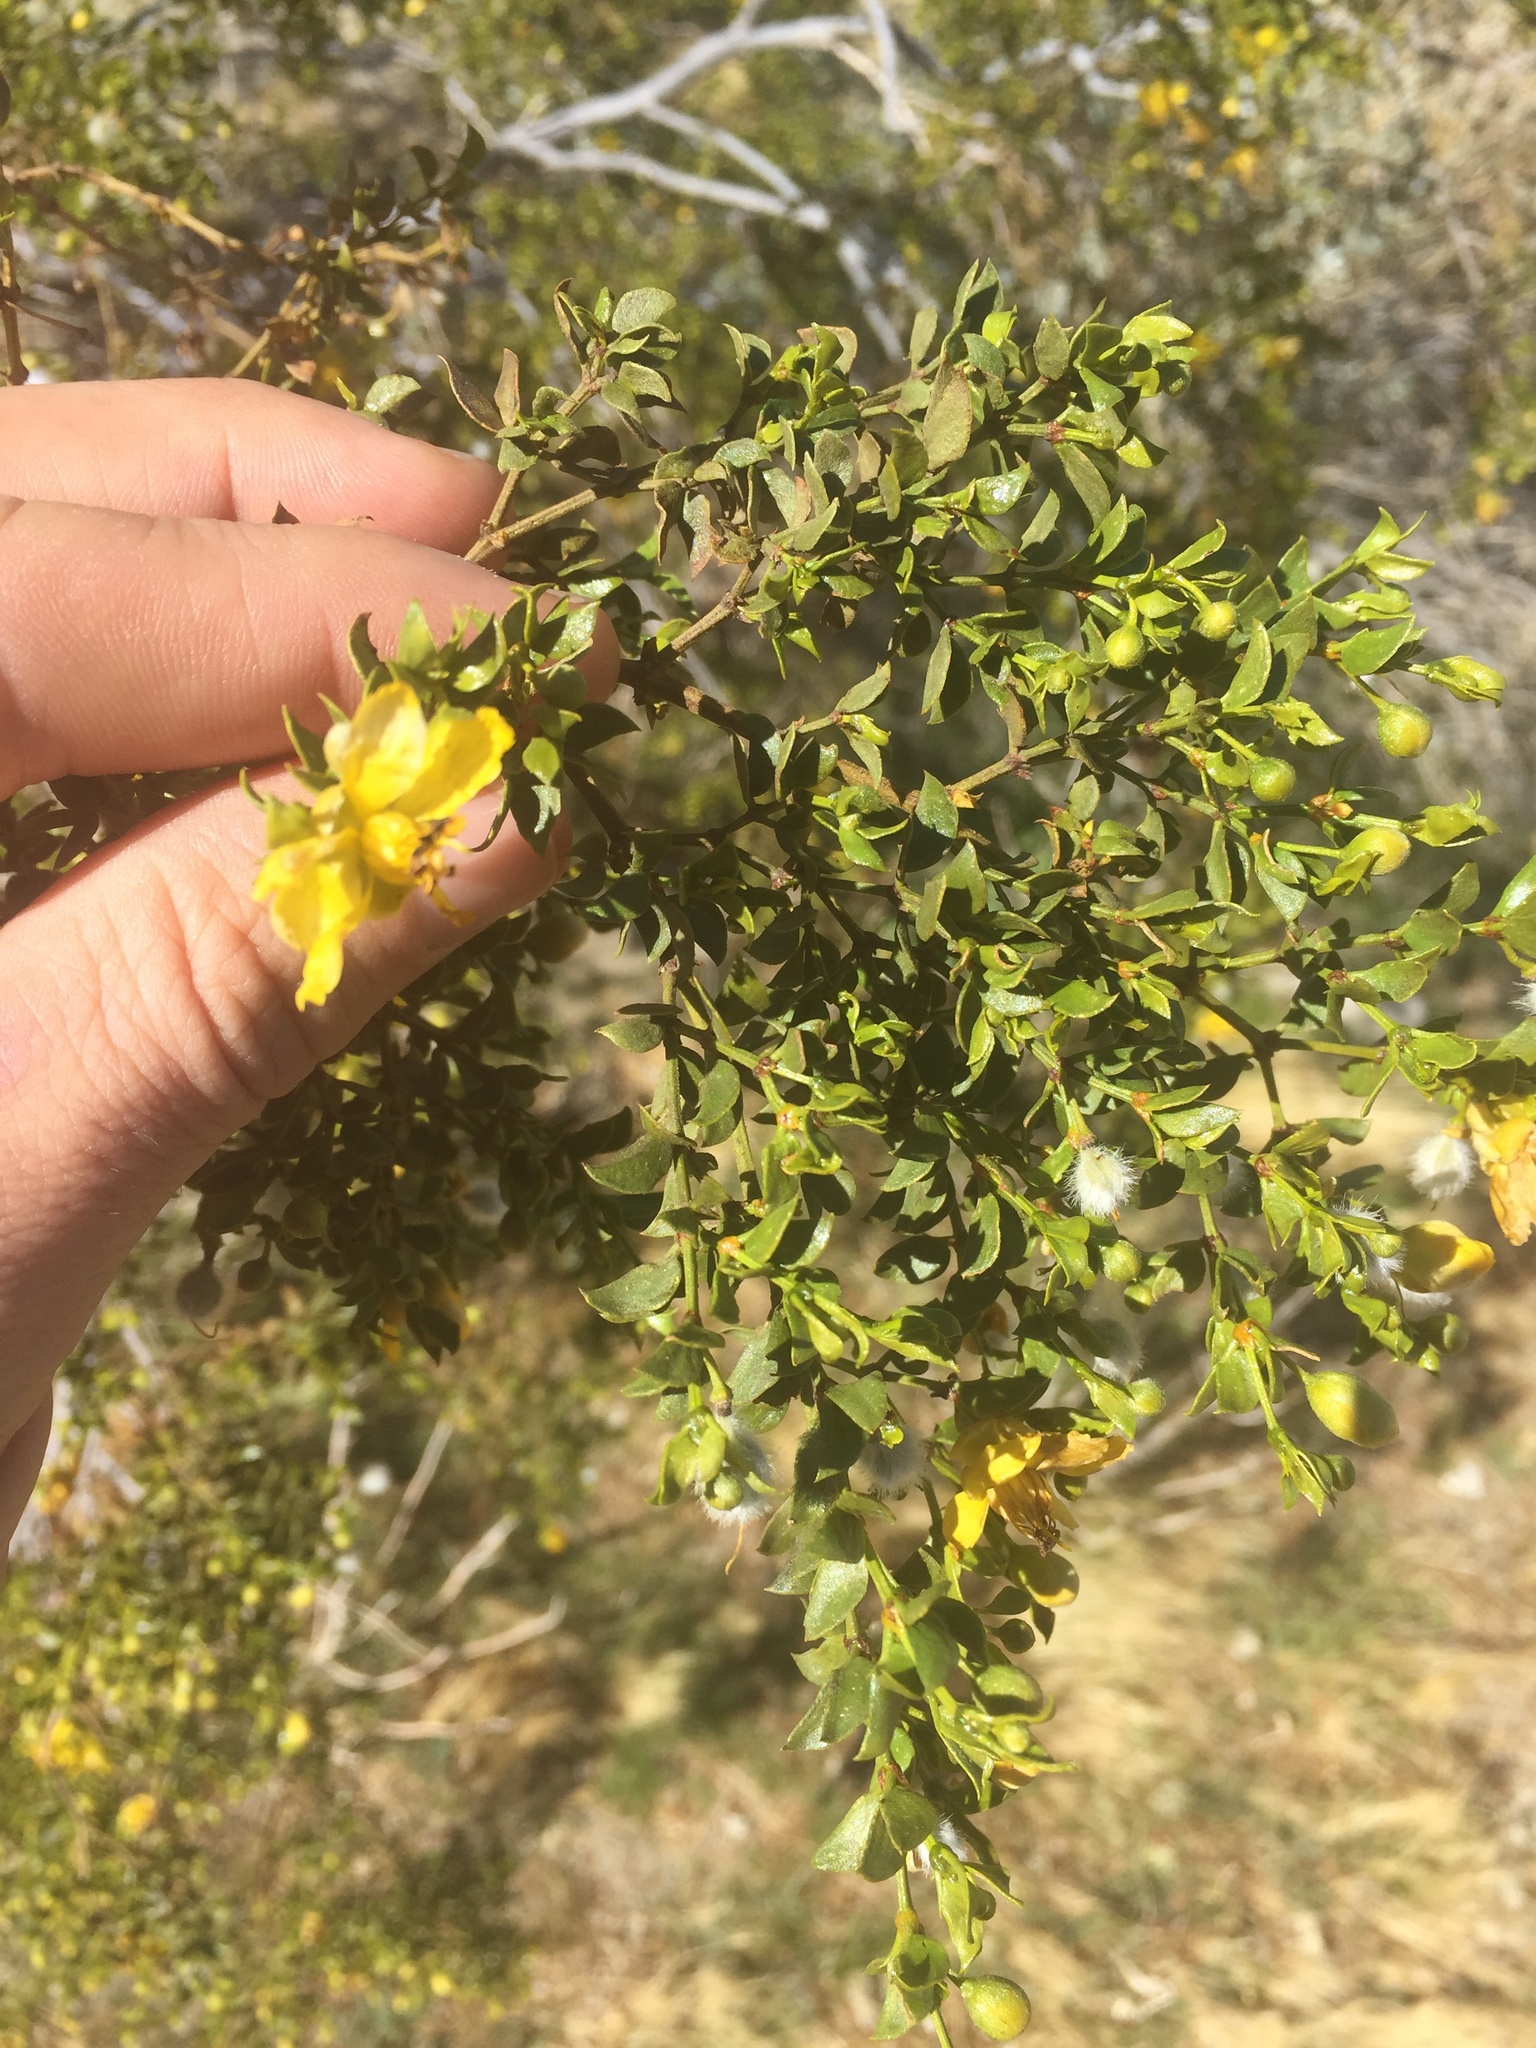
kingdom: Plantae
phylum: Tracheophyta
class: Magnoliopsida
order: Zygophyllales
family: Zygophyllaceae
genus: Larrea
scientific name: Larrea tridentata
